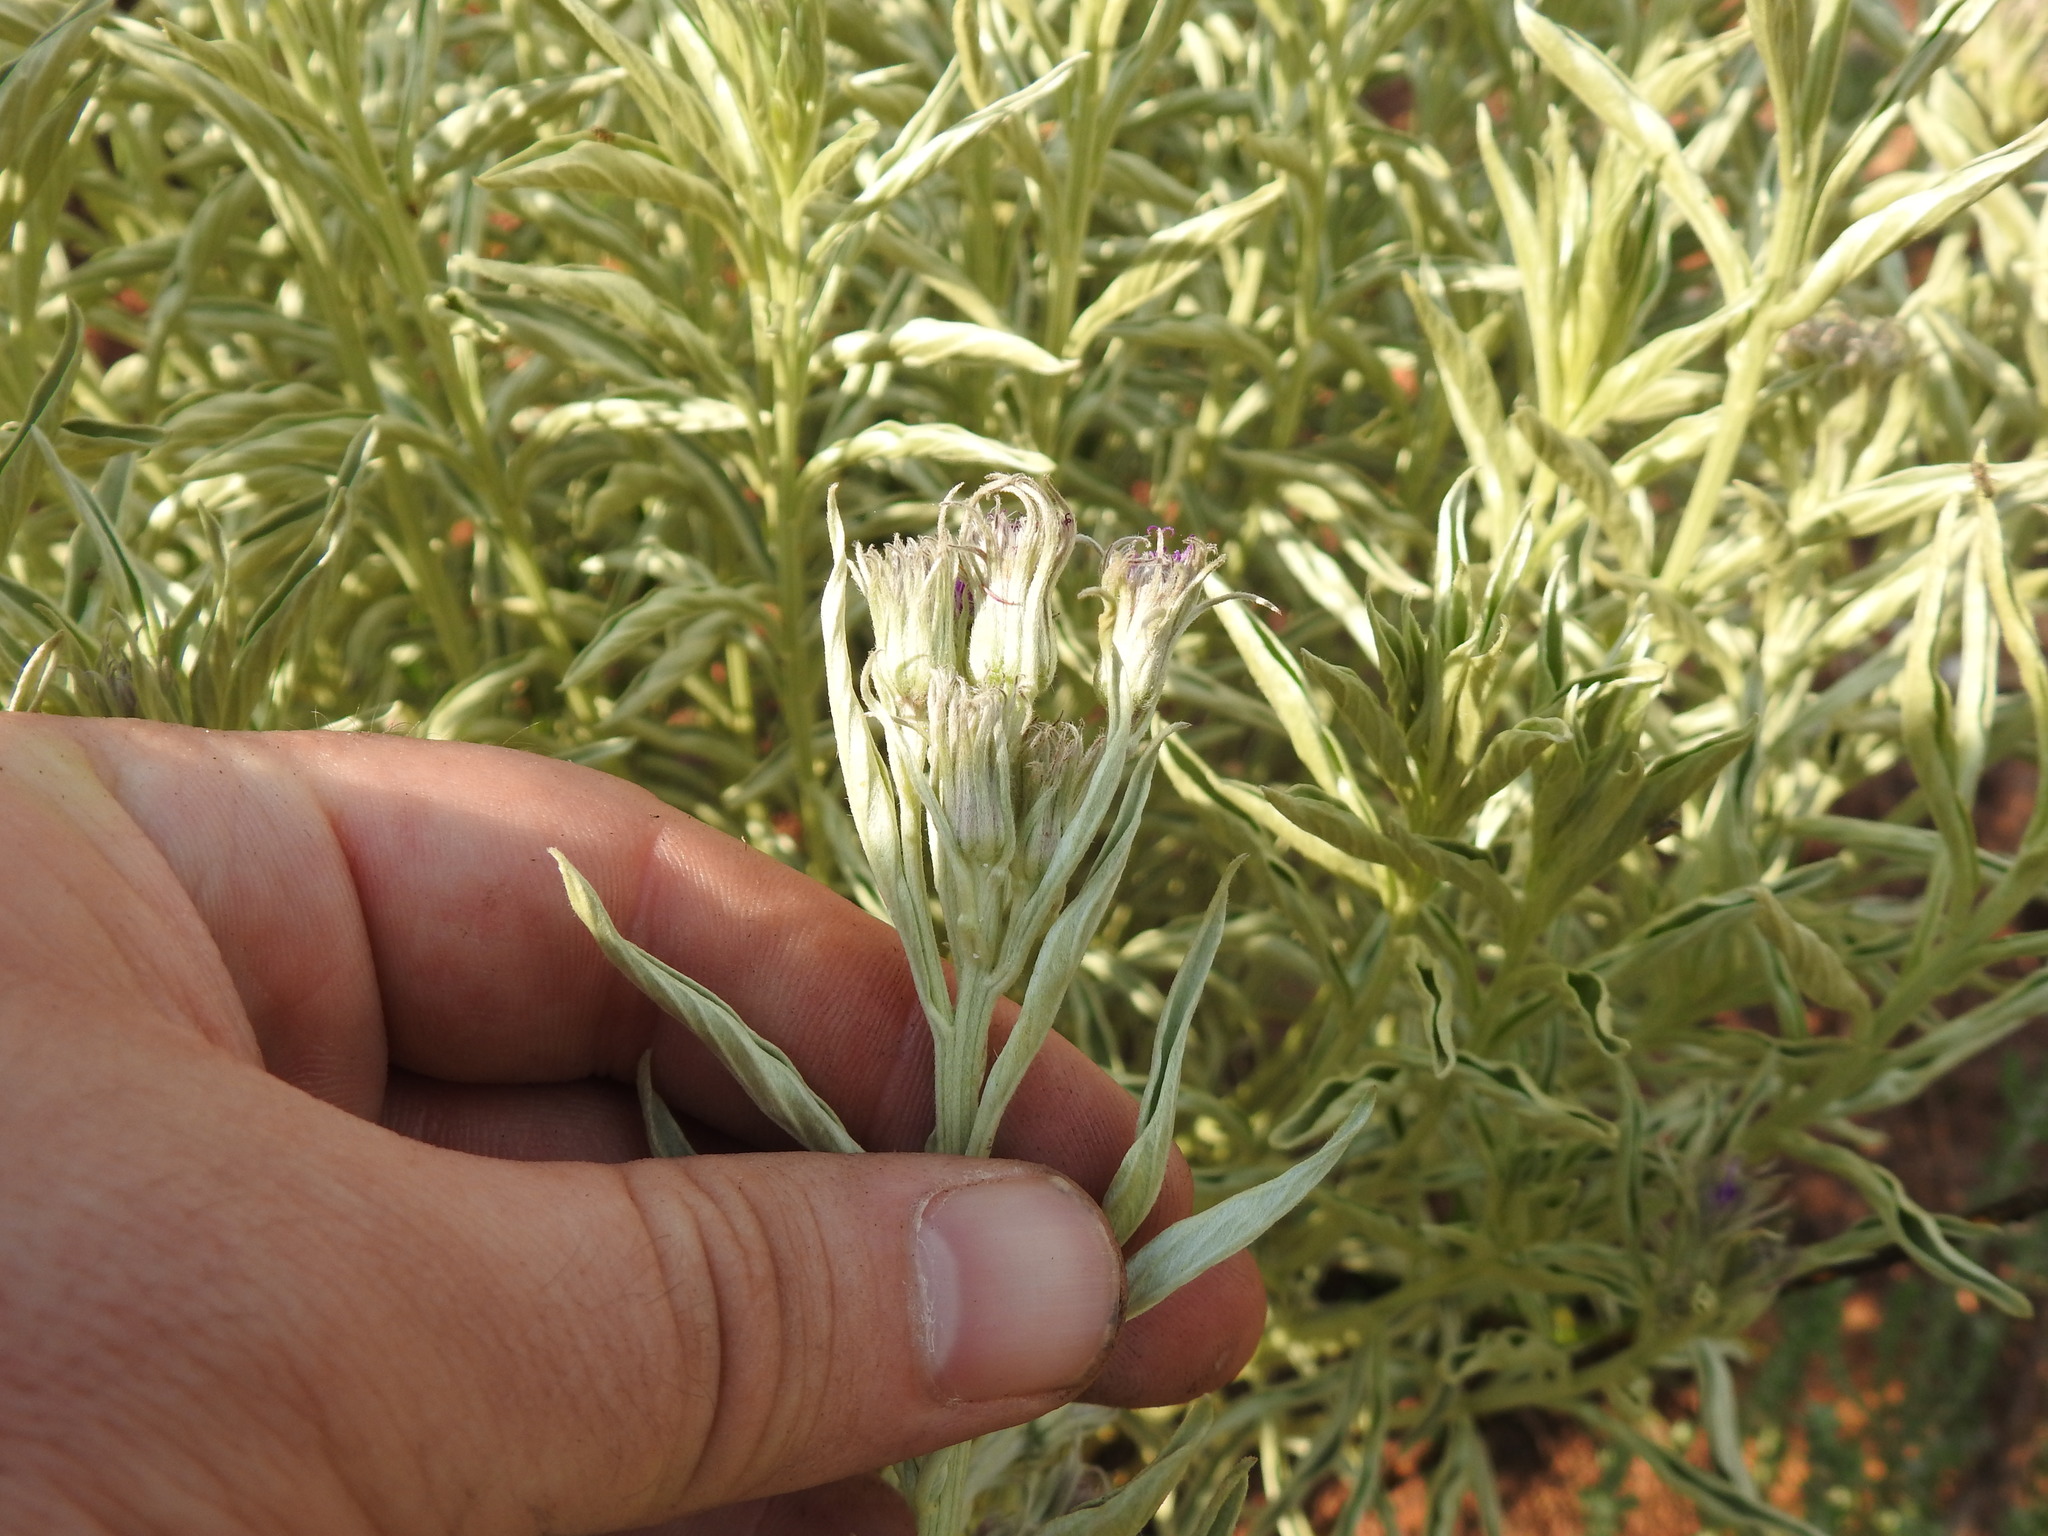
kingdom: Plantae
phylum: Tracheophyta
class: Magnoliopsida
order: Asterales
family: Asteraceae
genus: Hilliardiella
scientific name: Hilliardiella aristata
